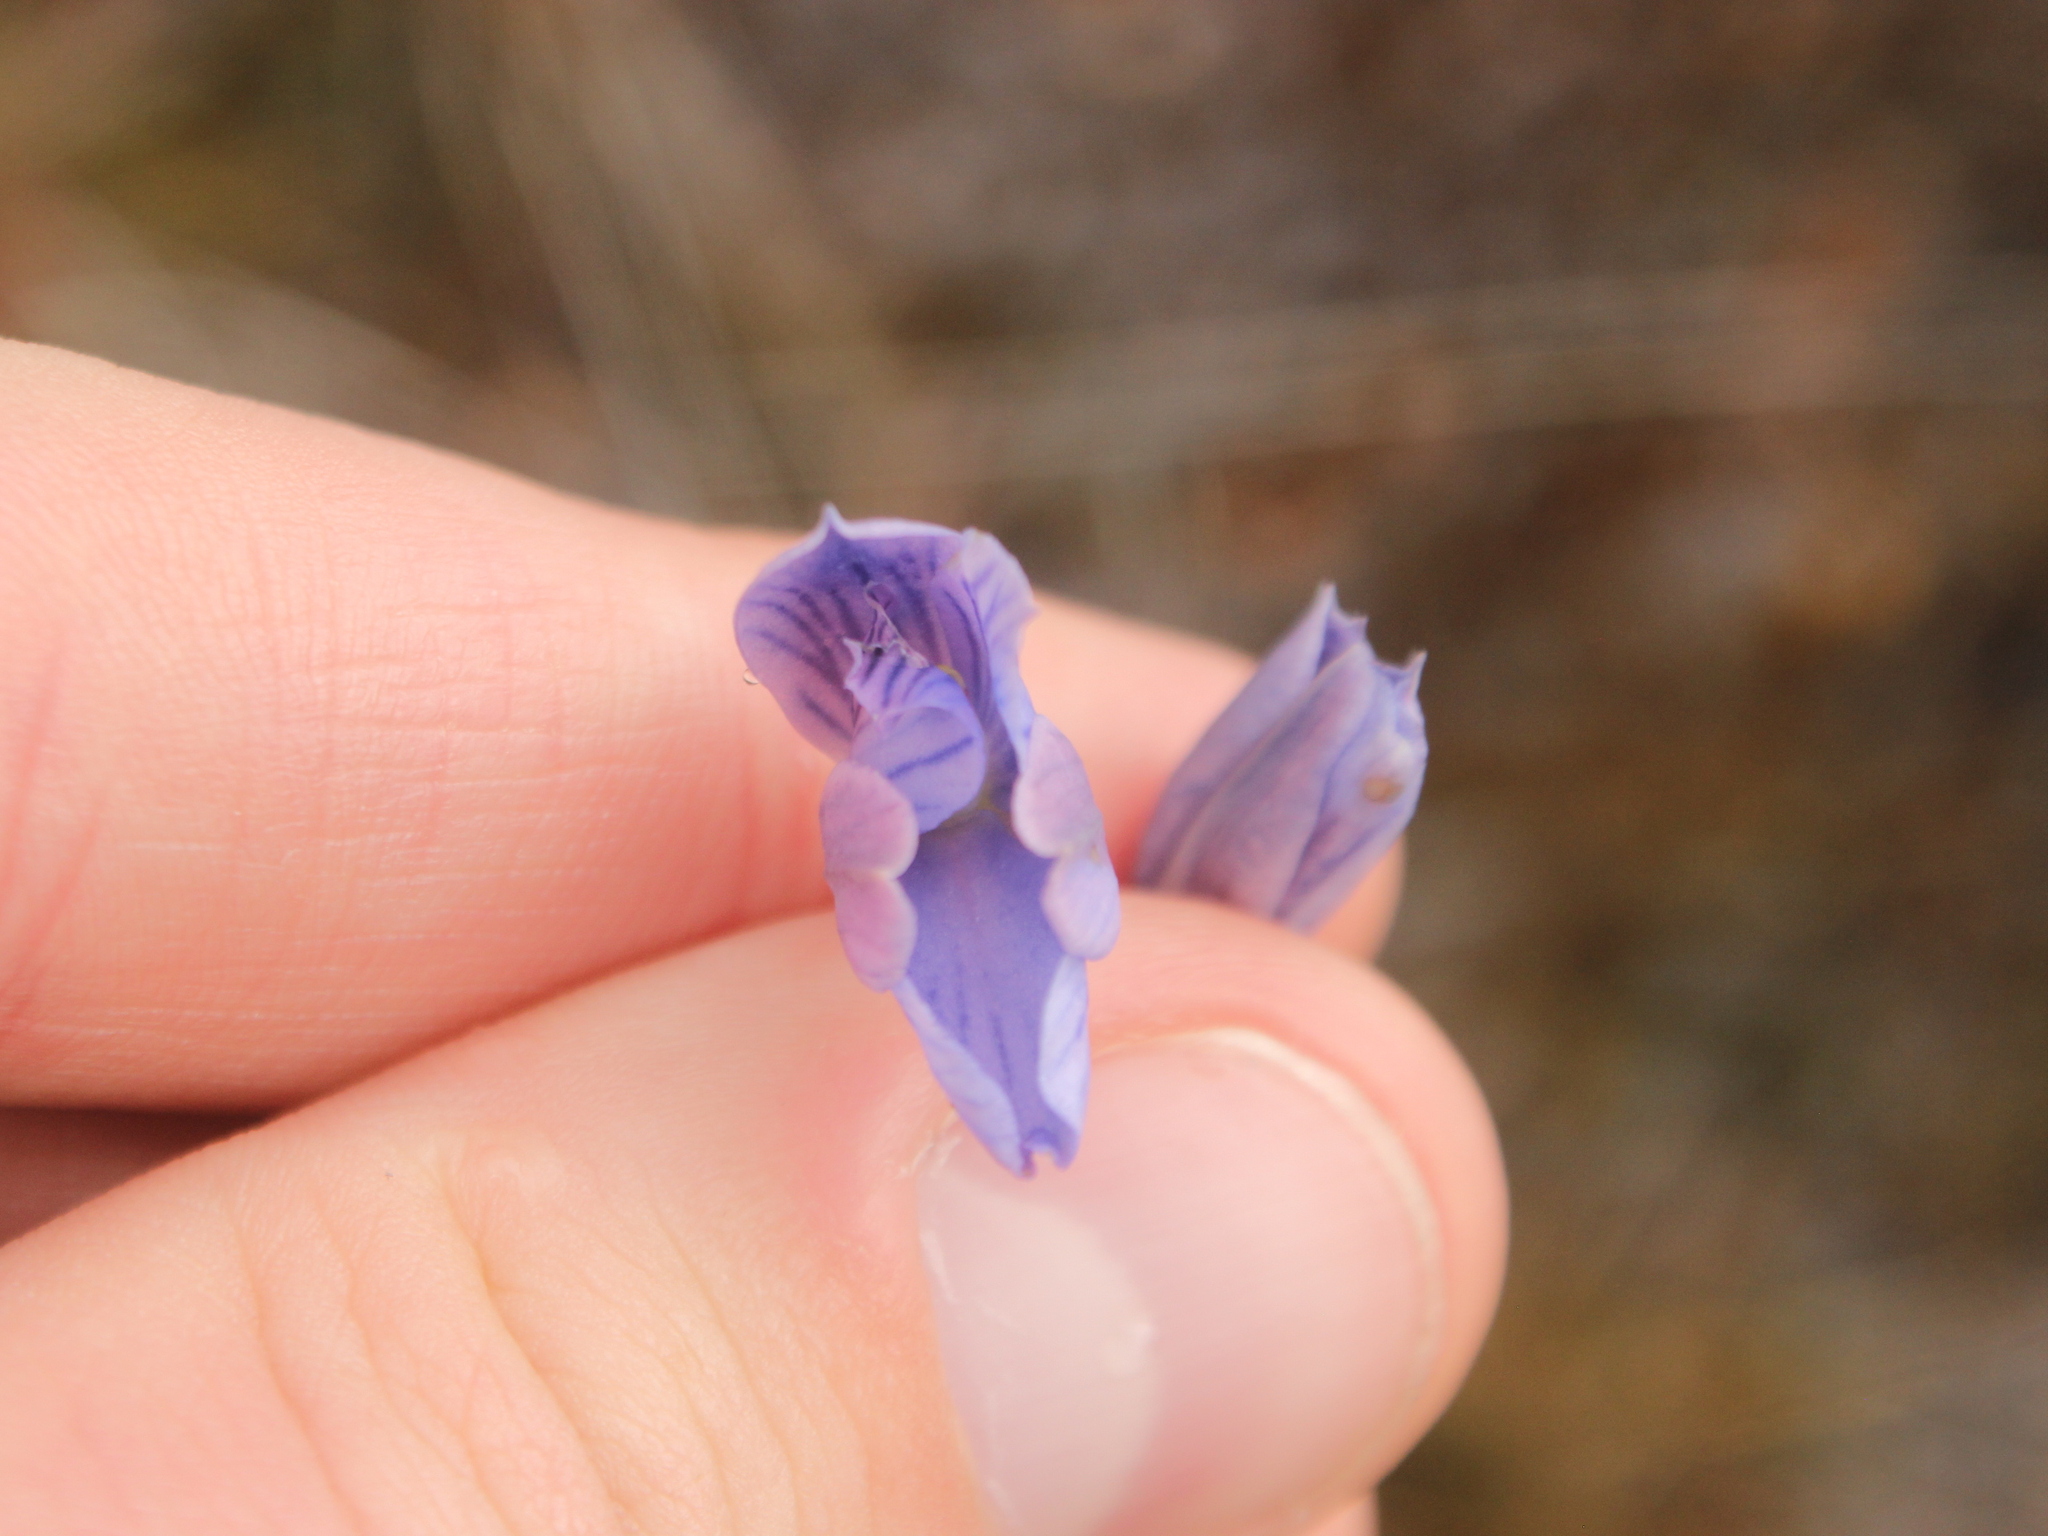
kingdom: Plantae
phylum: Tracheophyta
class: Liliopsida
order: Asparagales
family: Orchidaceae
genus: Thelymitra
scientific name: Thelymitra cyanea
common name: Blue sun-orchid
